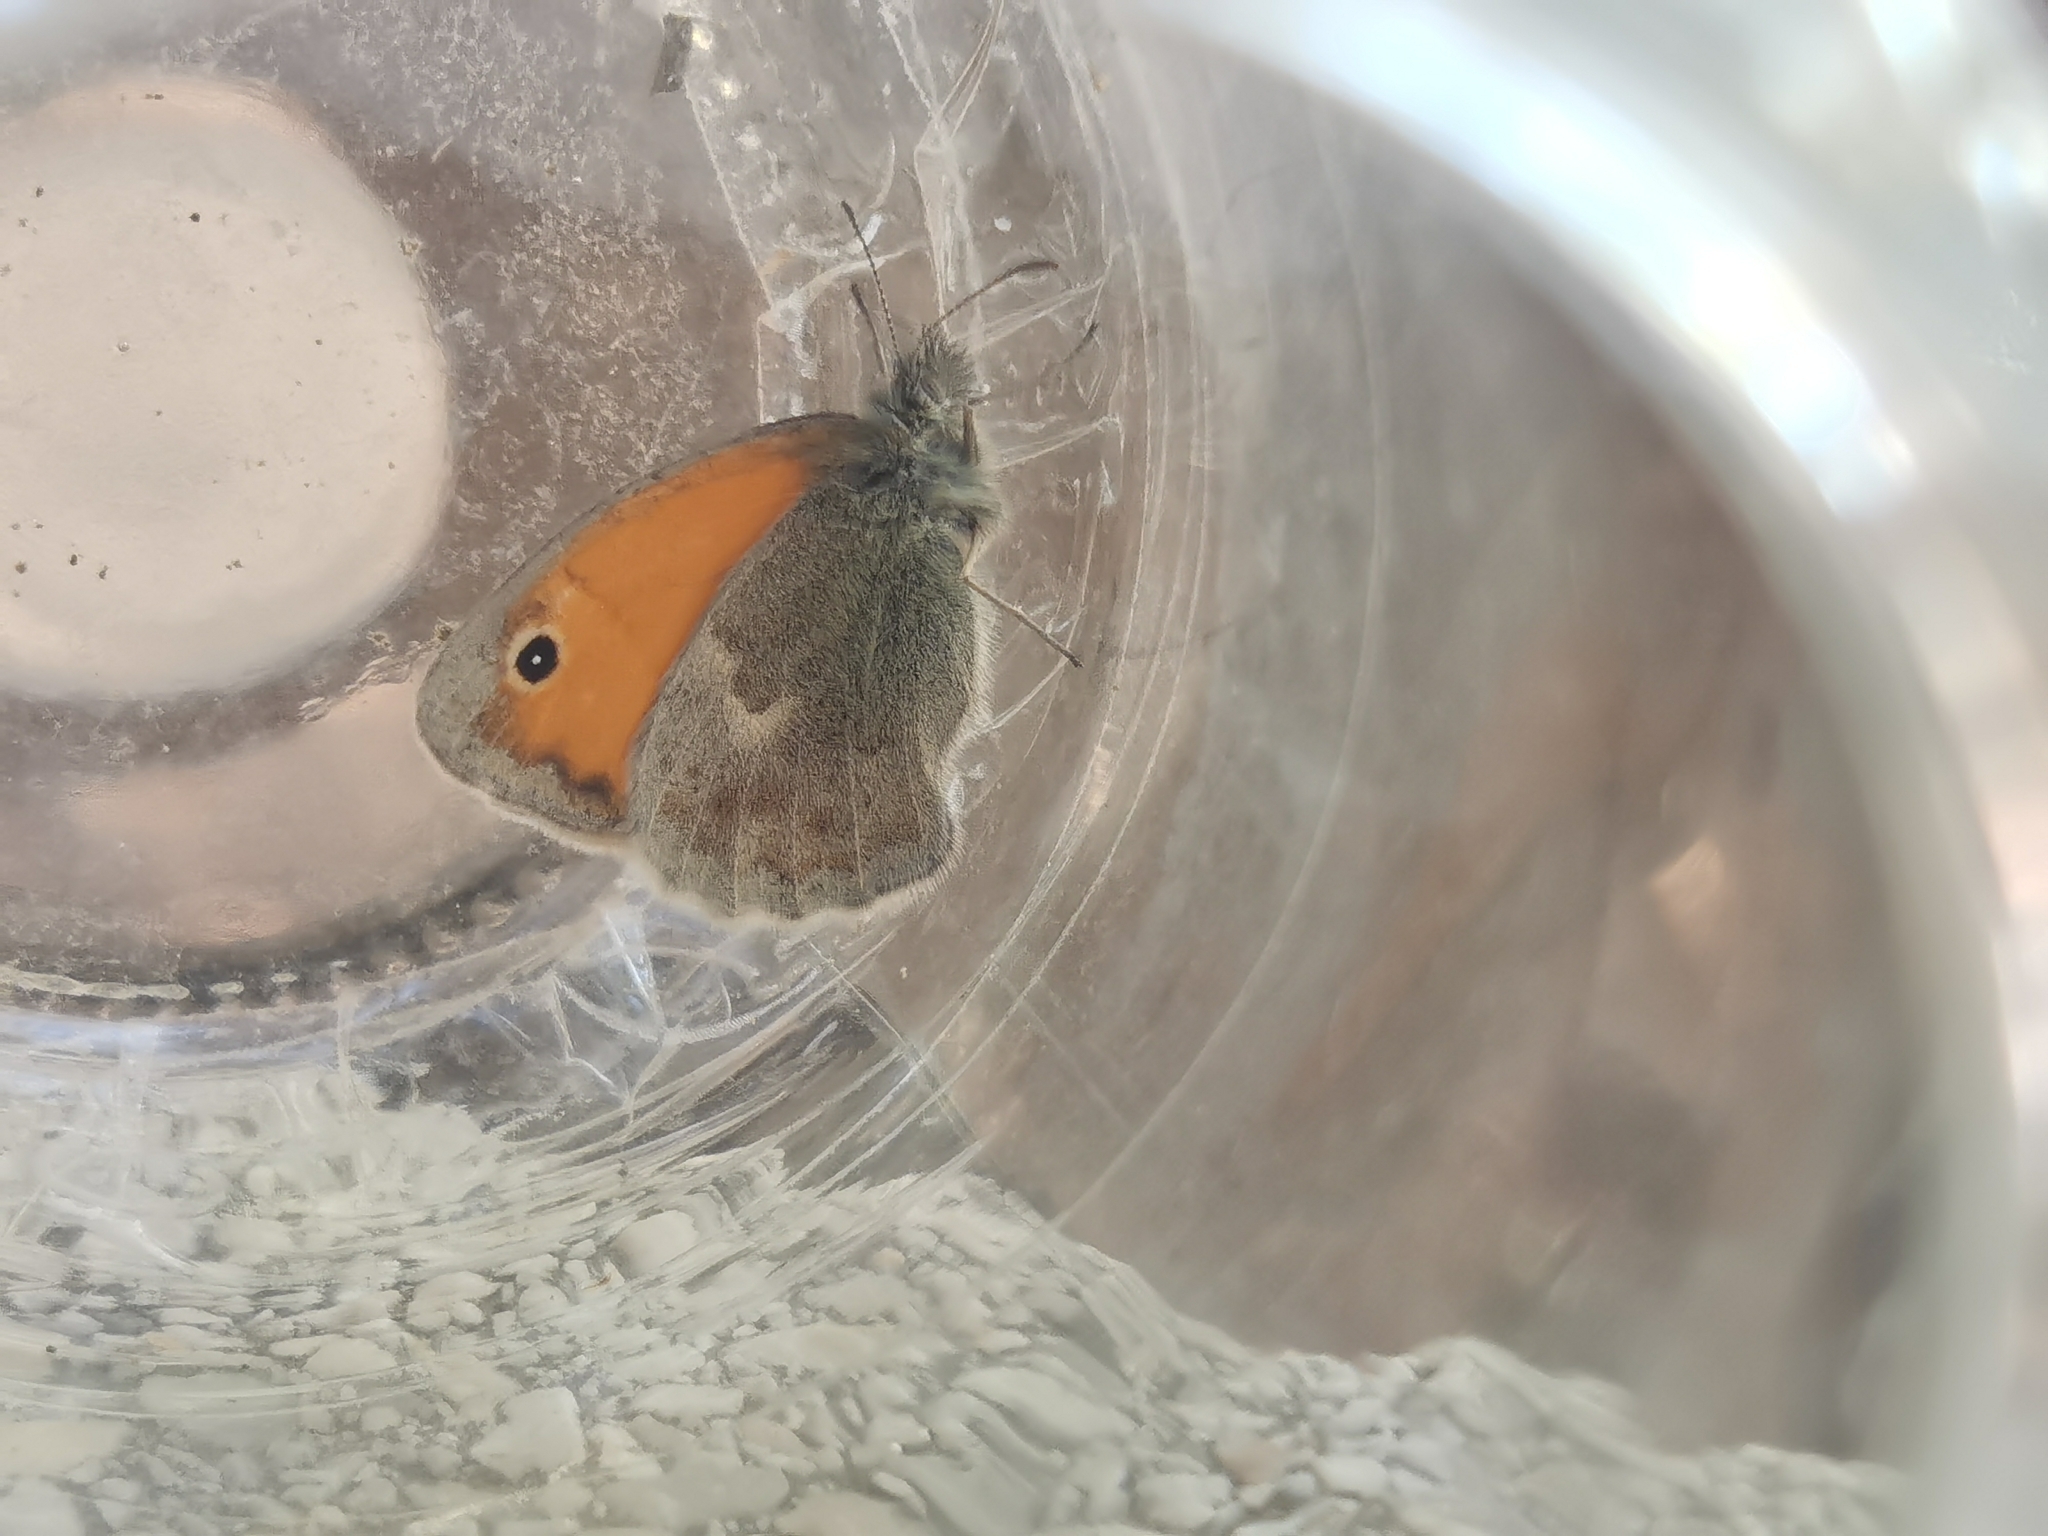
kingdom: Animalia
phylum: Arthropoda
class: Insecta
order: Lepidoptera
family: Nymphalidae
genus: Coenonympha
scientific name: Coenonympha pamphilus
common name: Small heath
